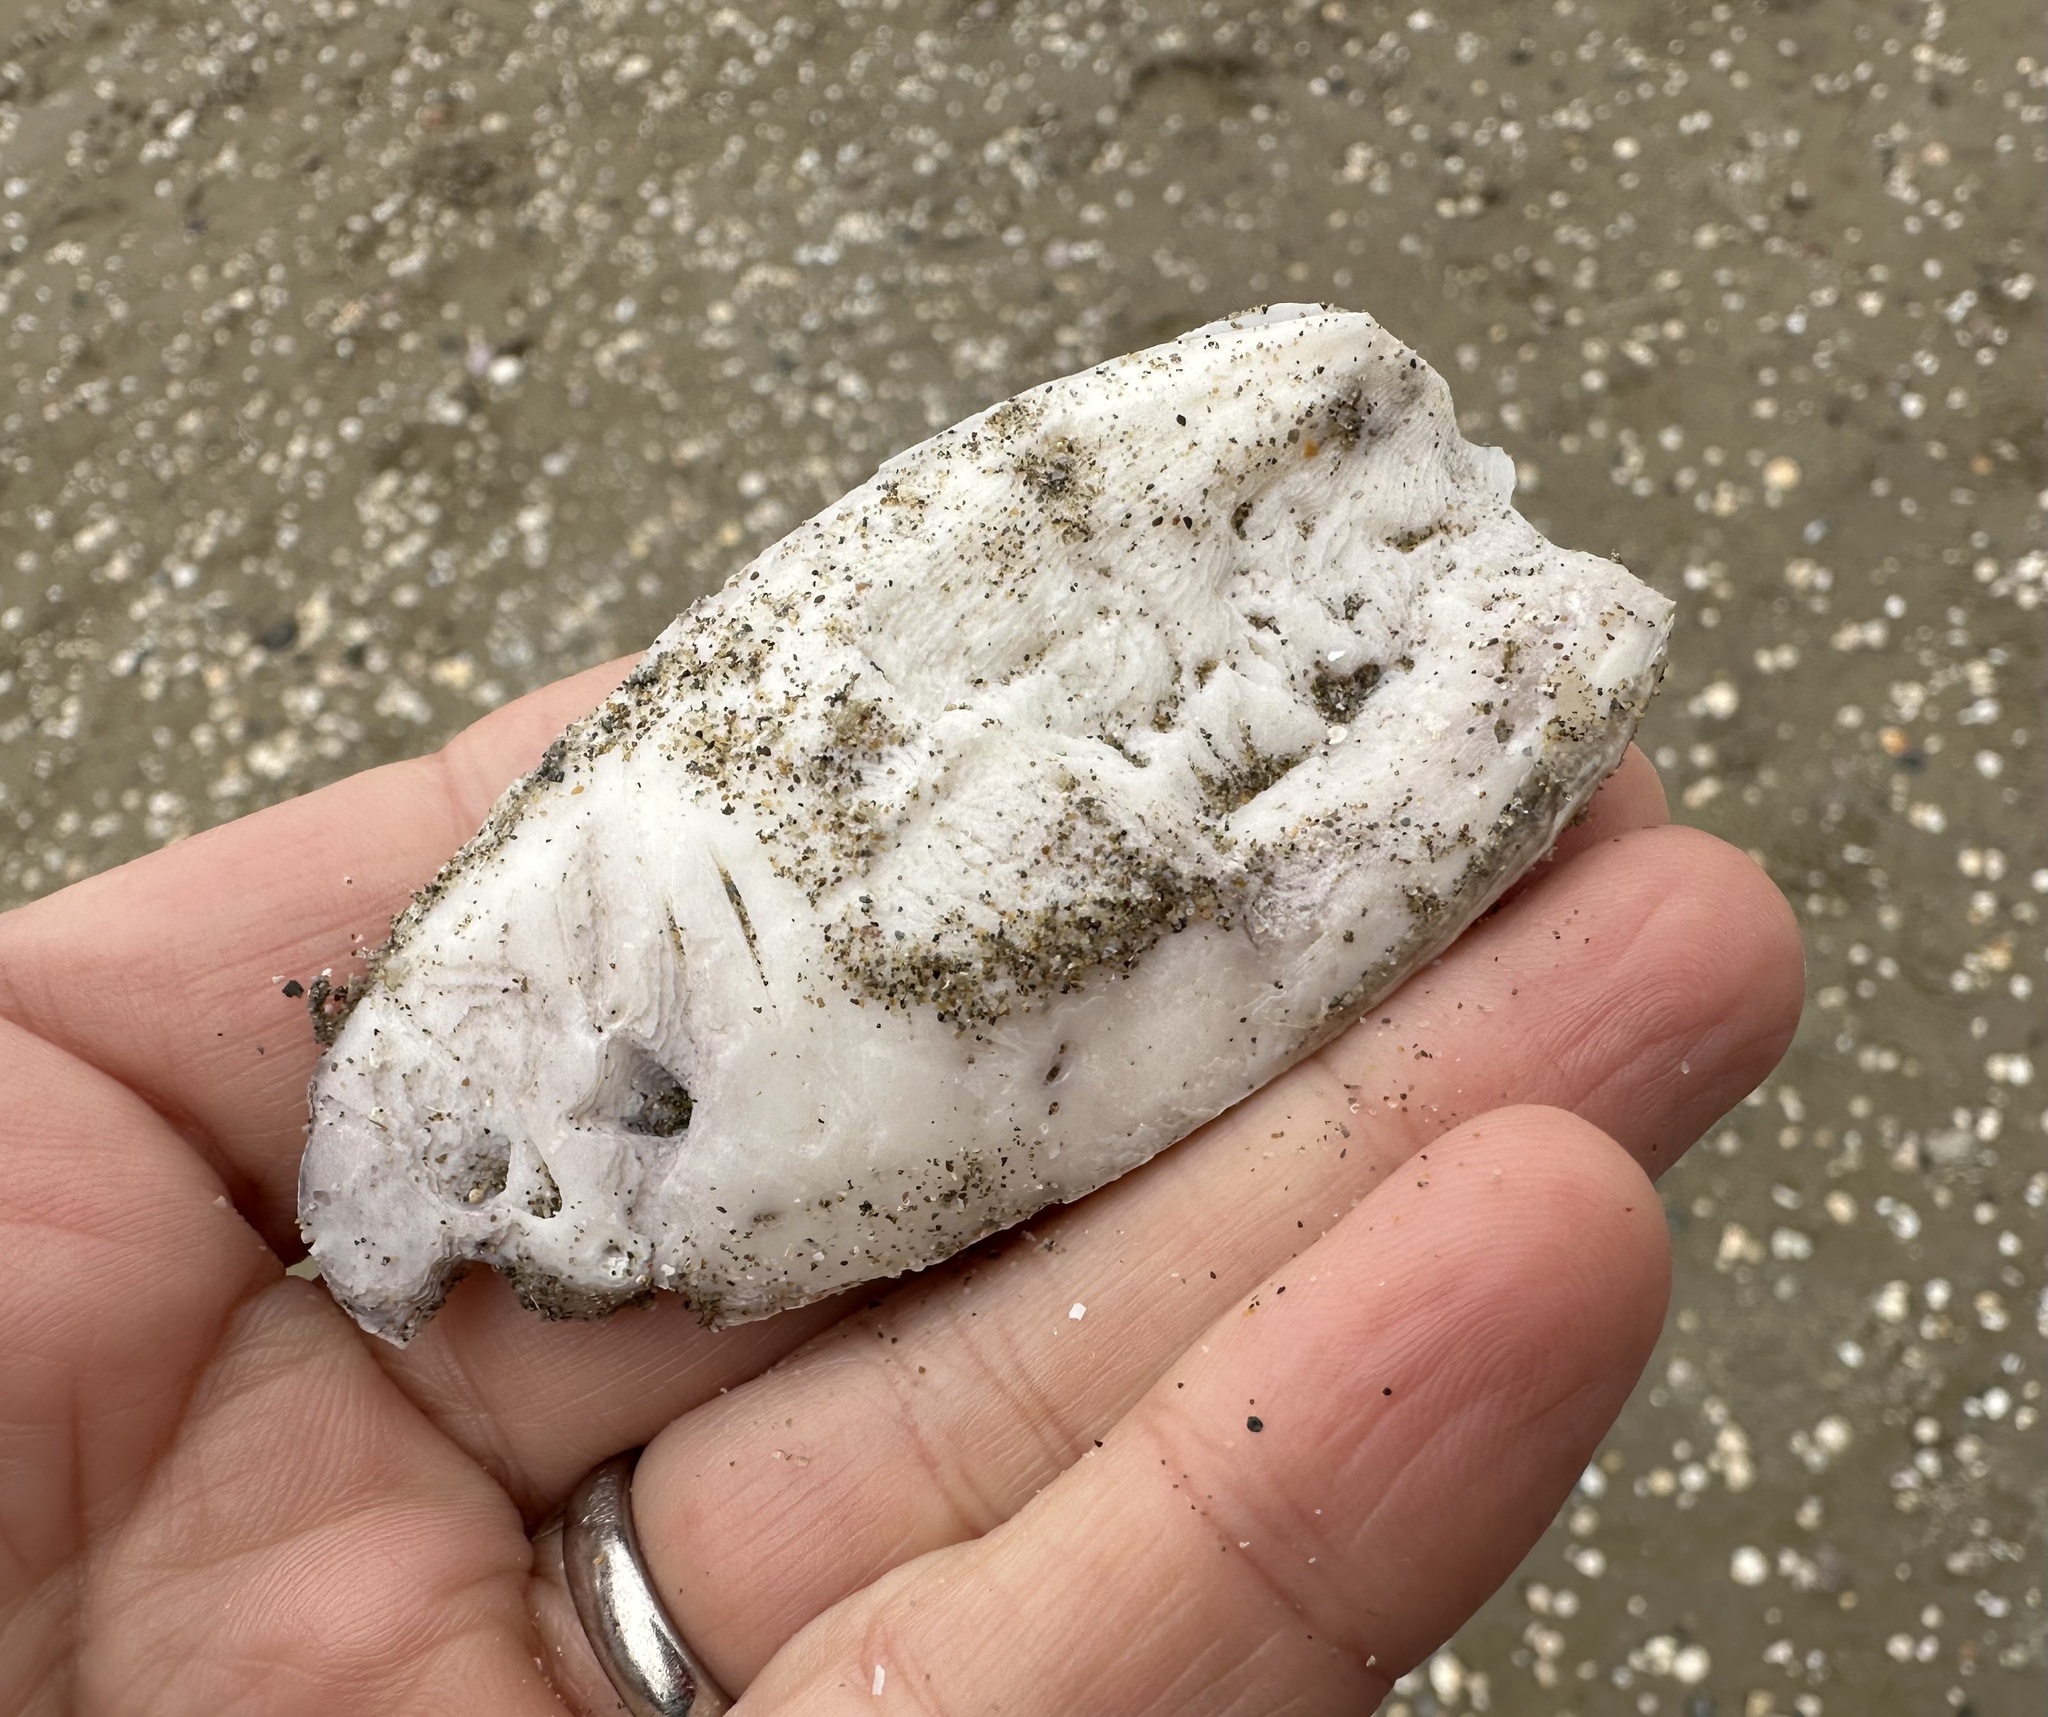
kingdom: Animalia
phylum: Mollusca
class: Cephalopoda
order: Sepiida
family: Sepiidae
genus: Sepia
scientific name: Sepia officinalis
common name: Common cuttlefish
